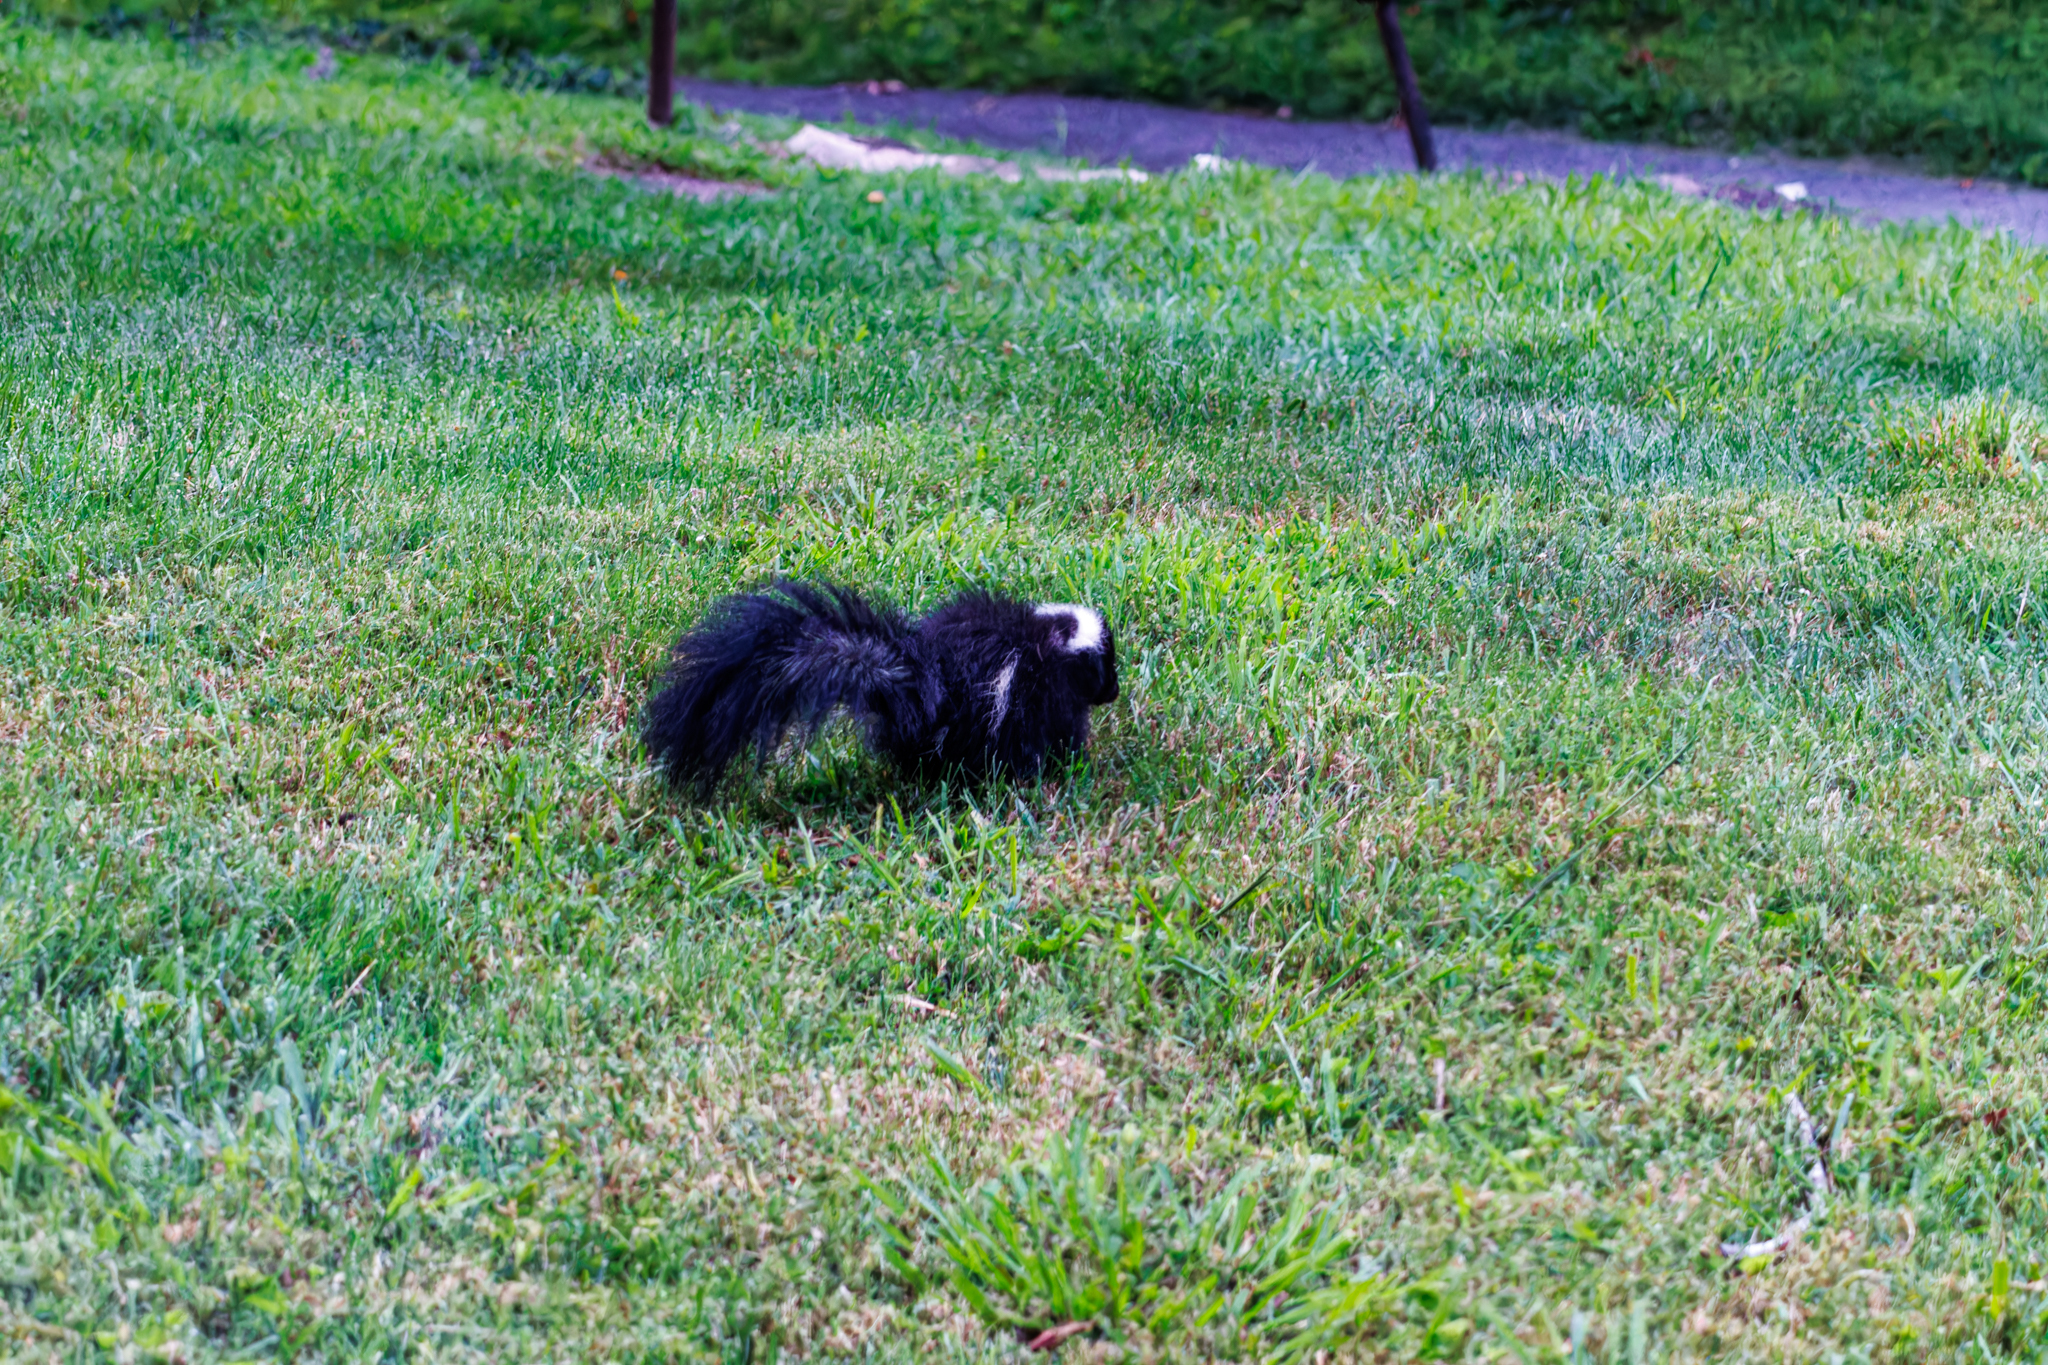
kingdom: Animalia
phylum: Chordata
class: Mammalia
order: Carnivora
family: Mephitidae
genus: Mephitis
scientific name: Mephitis mephitis
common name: Striped skunk
